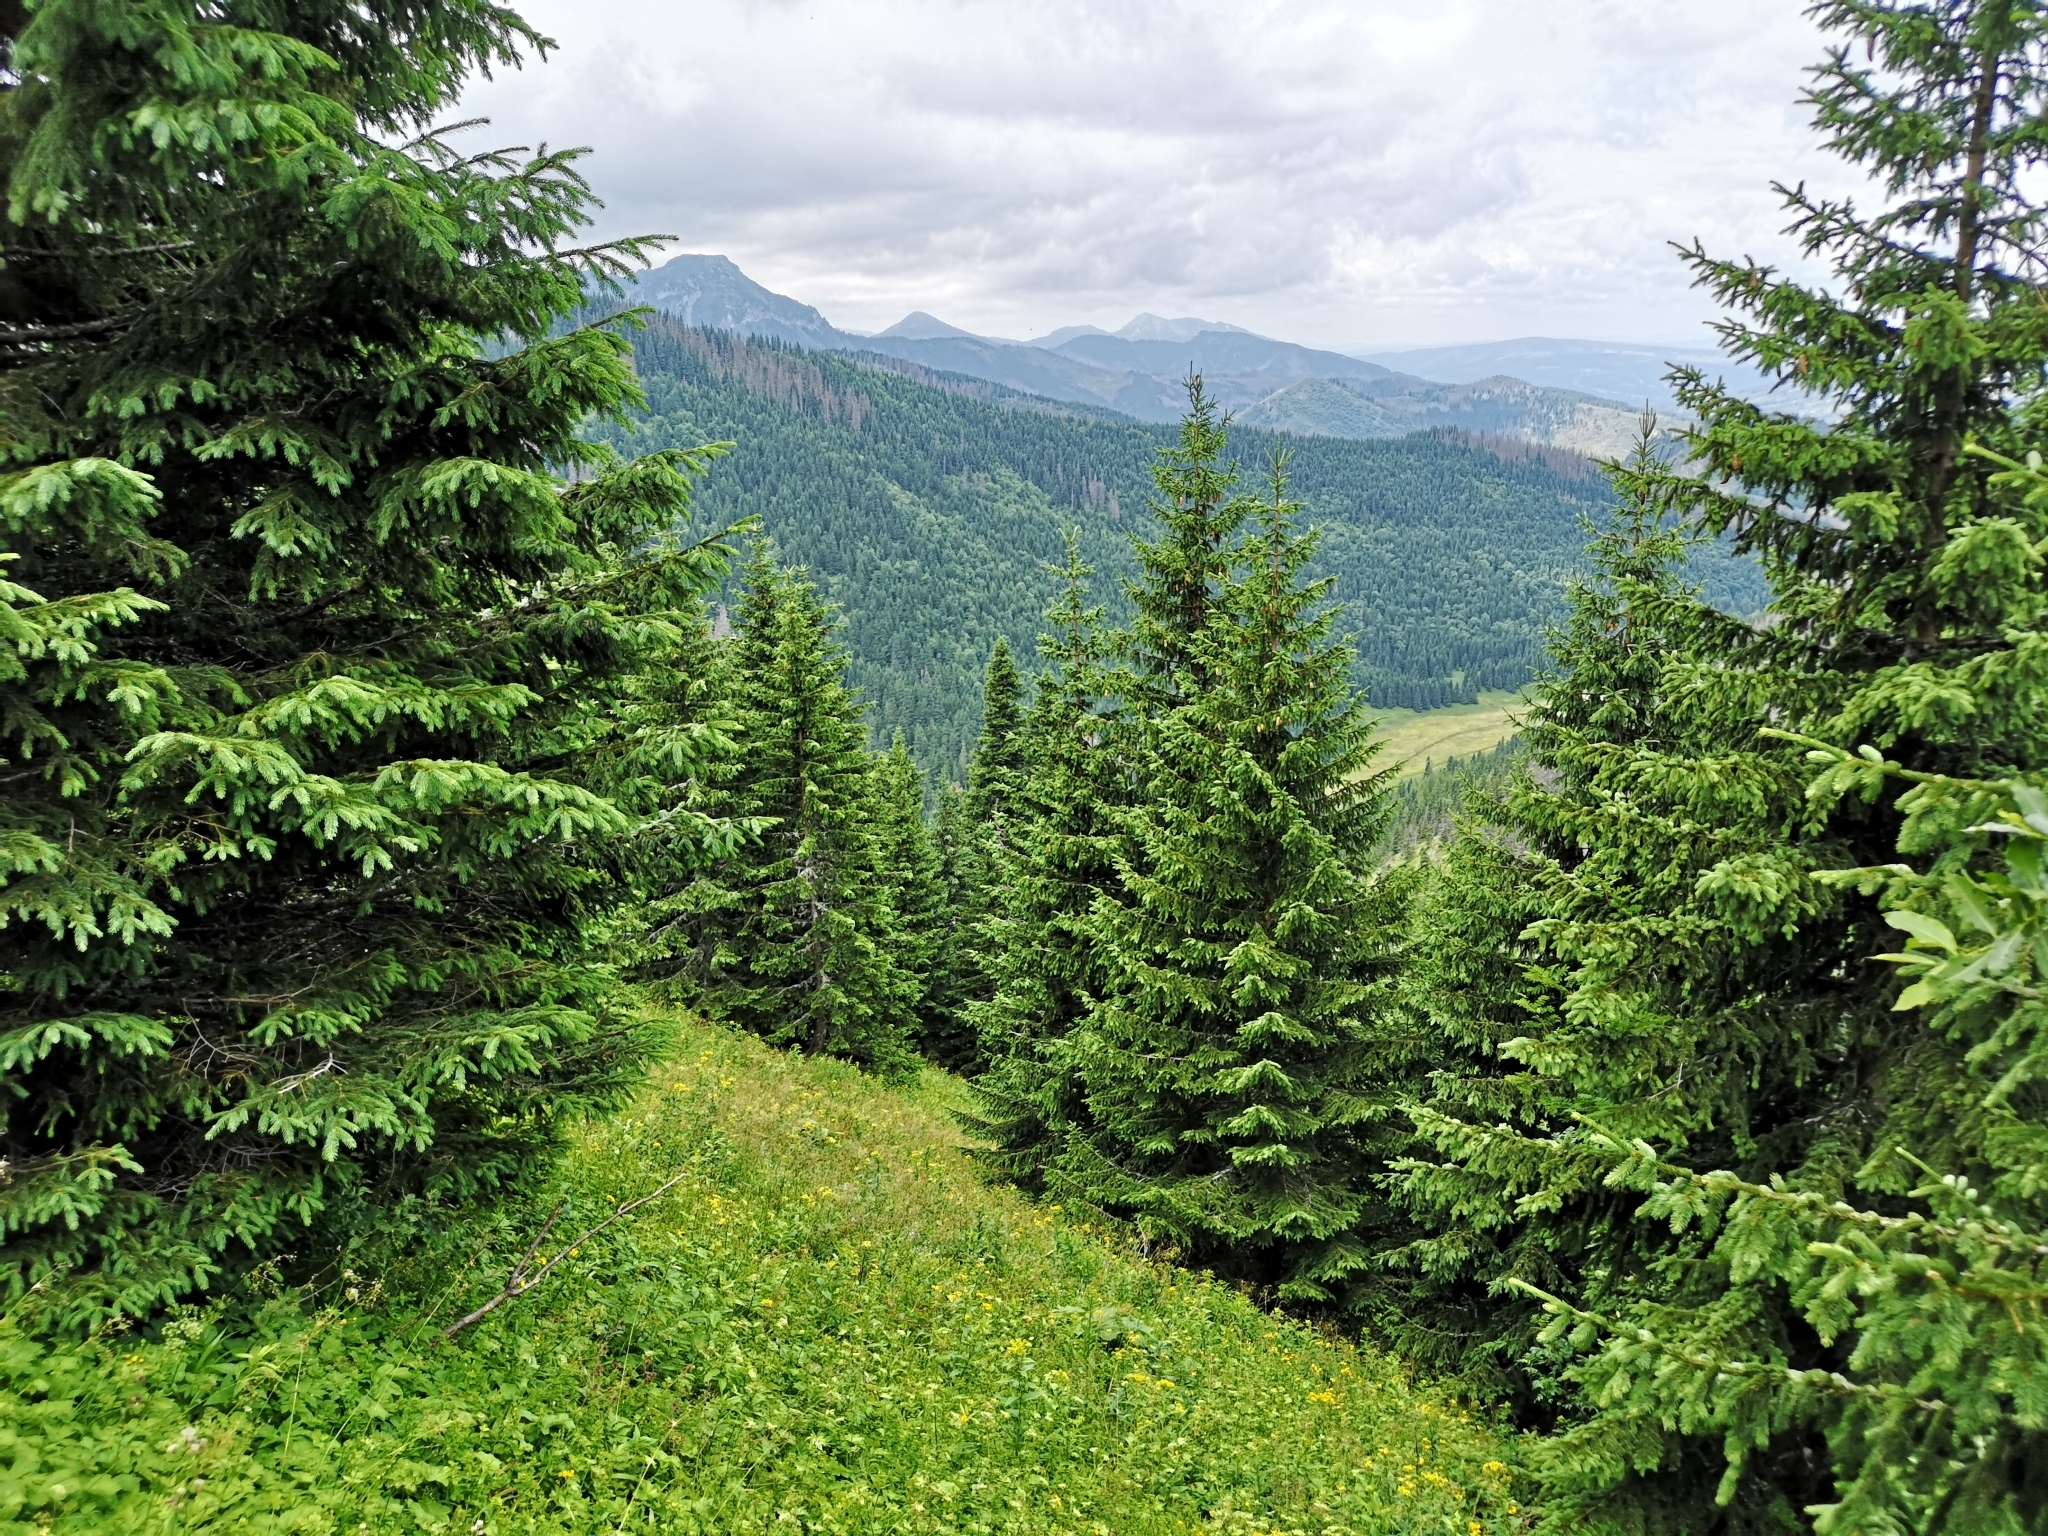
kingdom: Plantae
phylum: Tracheophyta
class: Pinopsida
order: Pinales
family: Pinaceae
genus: Picea
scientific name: Picea abies
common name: Norway spruce
